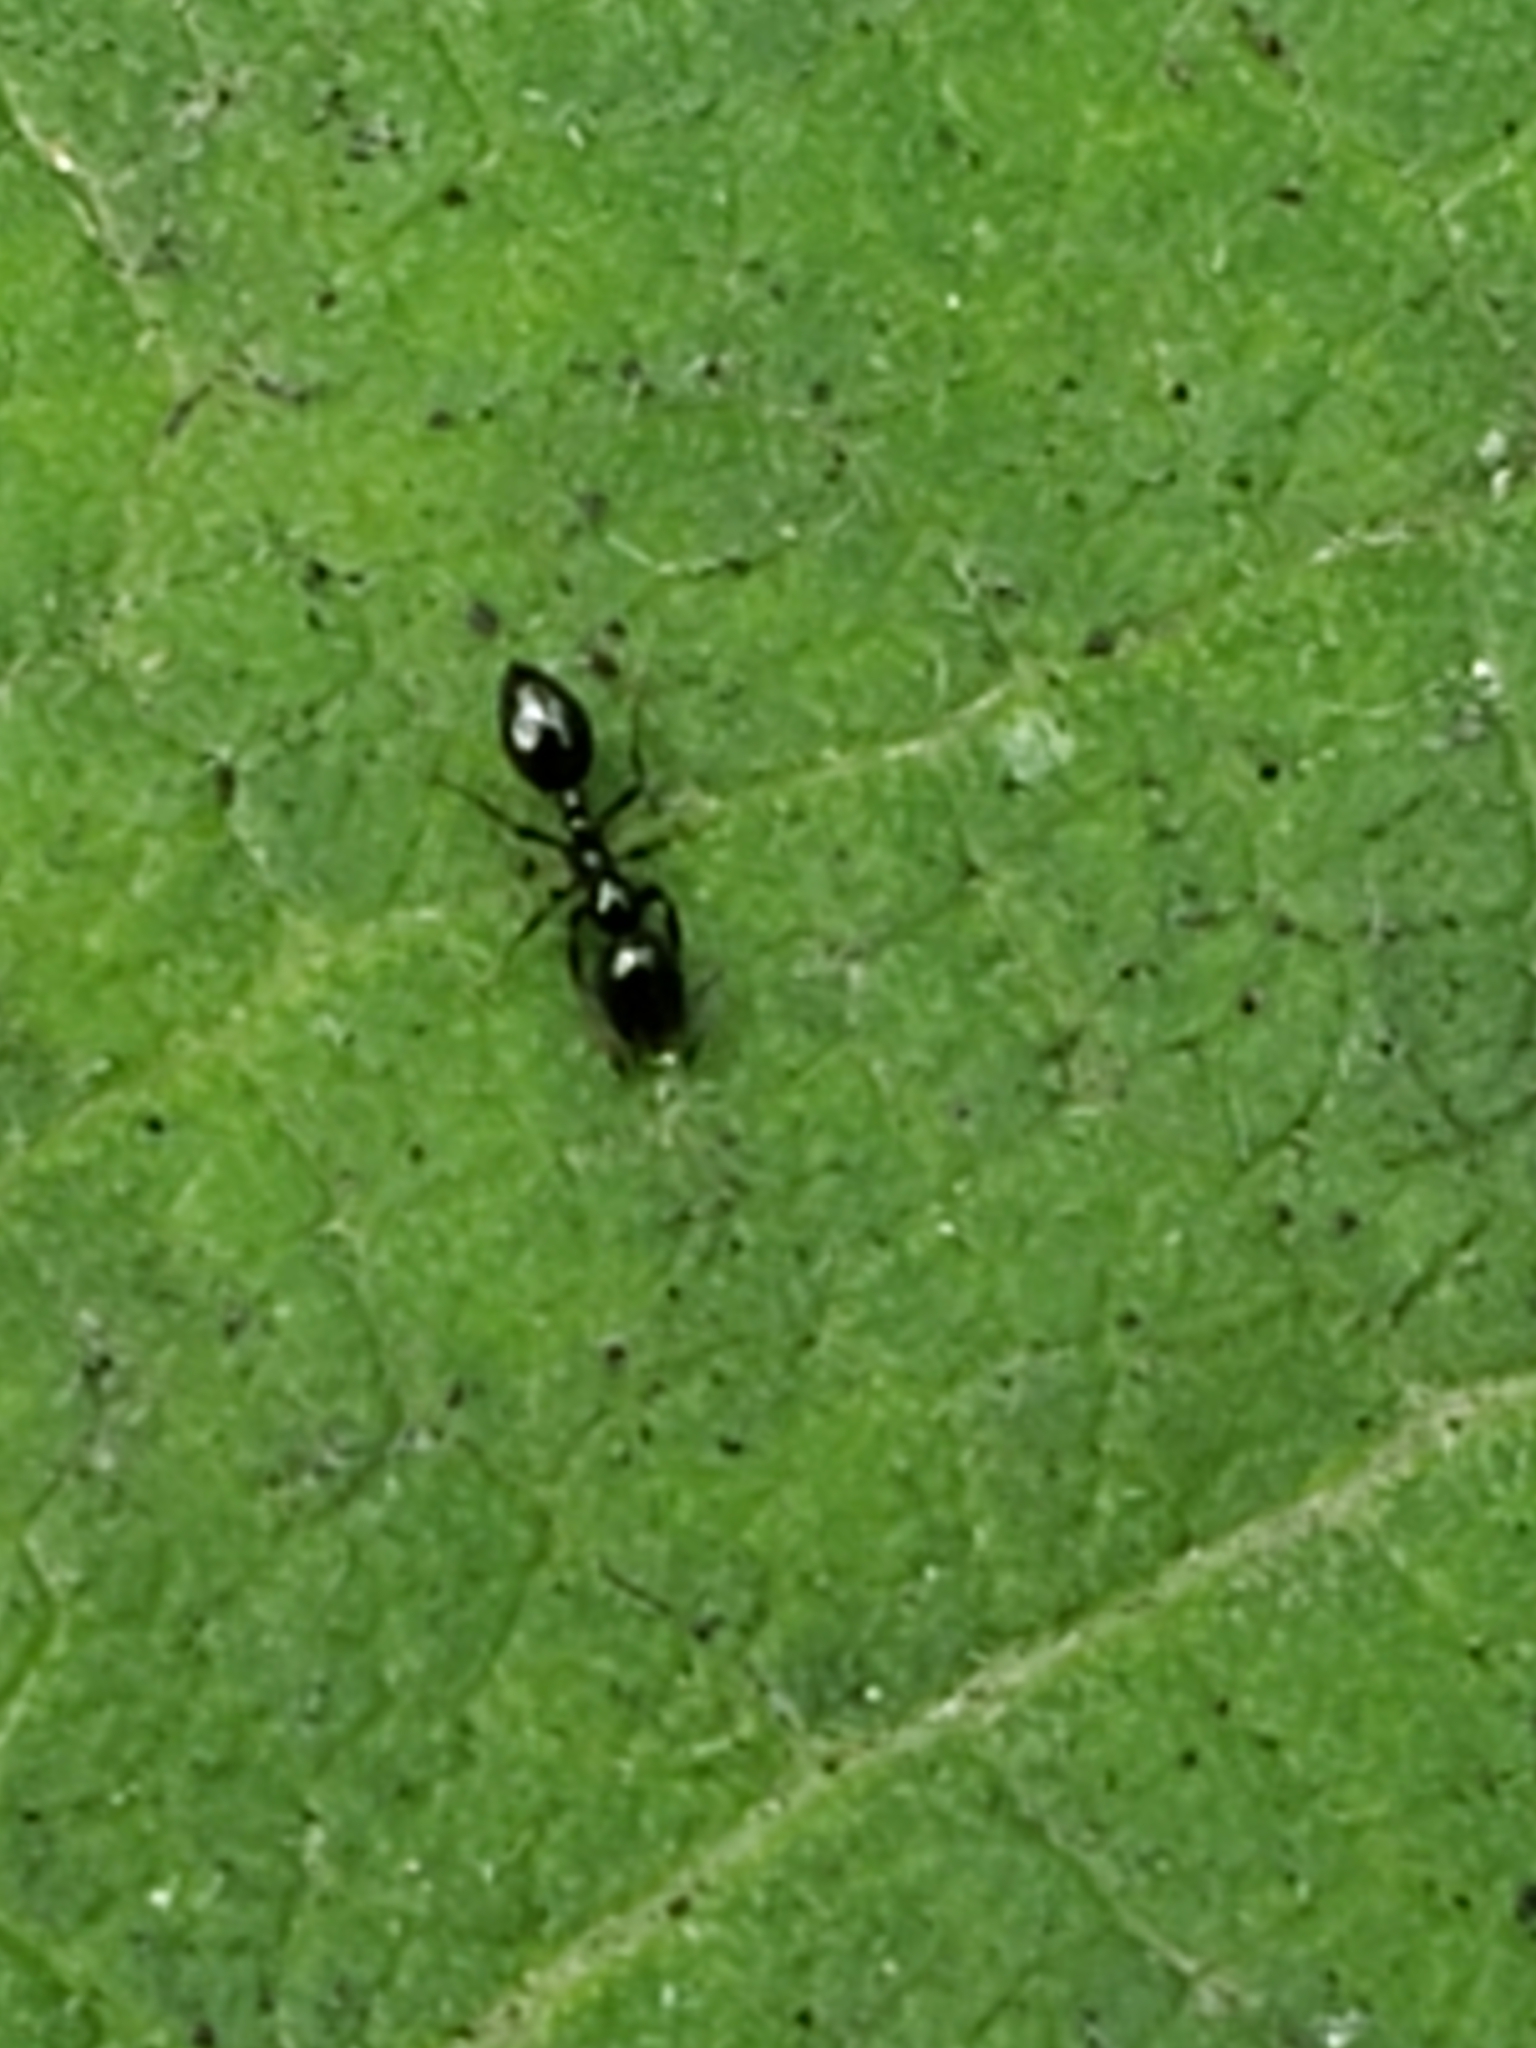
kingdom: Animalia
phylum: Arthropoda
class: Insecta
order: Hymenoptera
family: Formicidae
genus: Monomorium
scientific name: Monomorium minimum
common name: Little black ant
